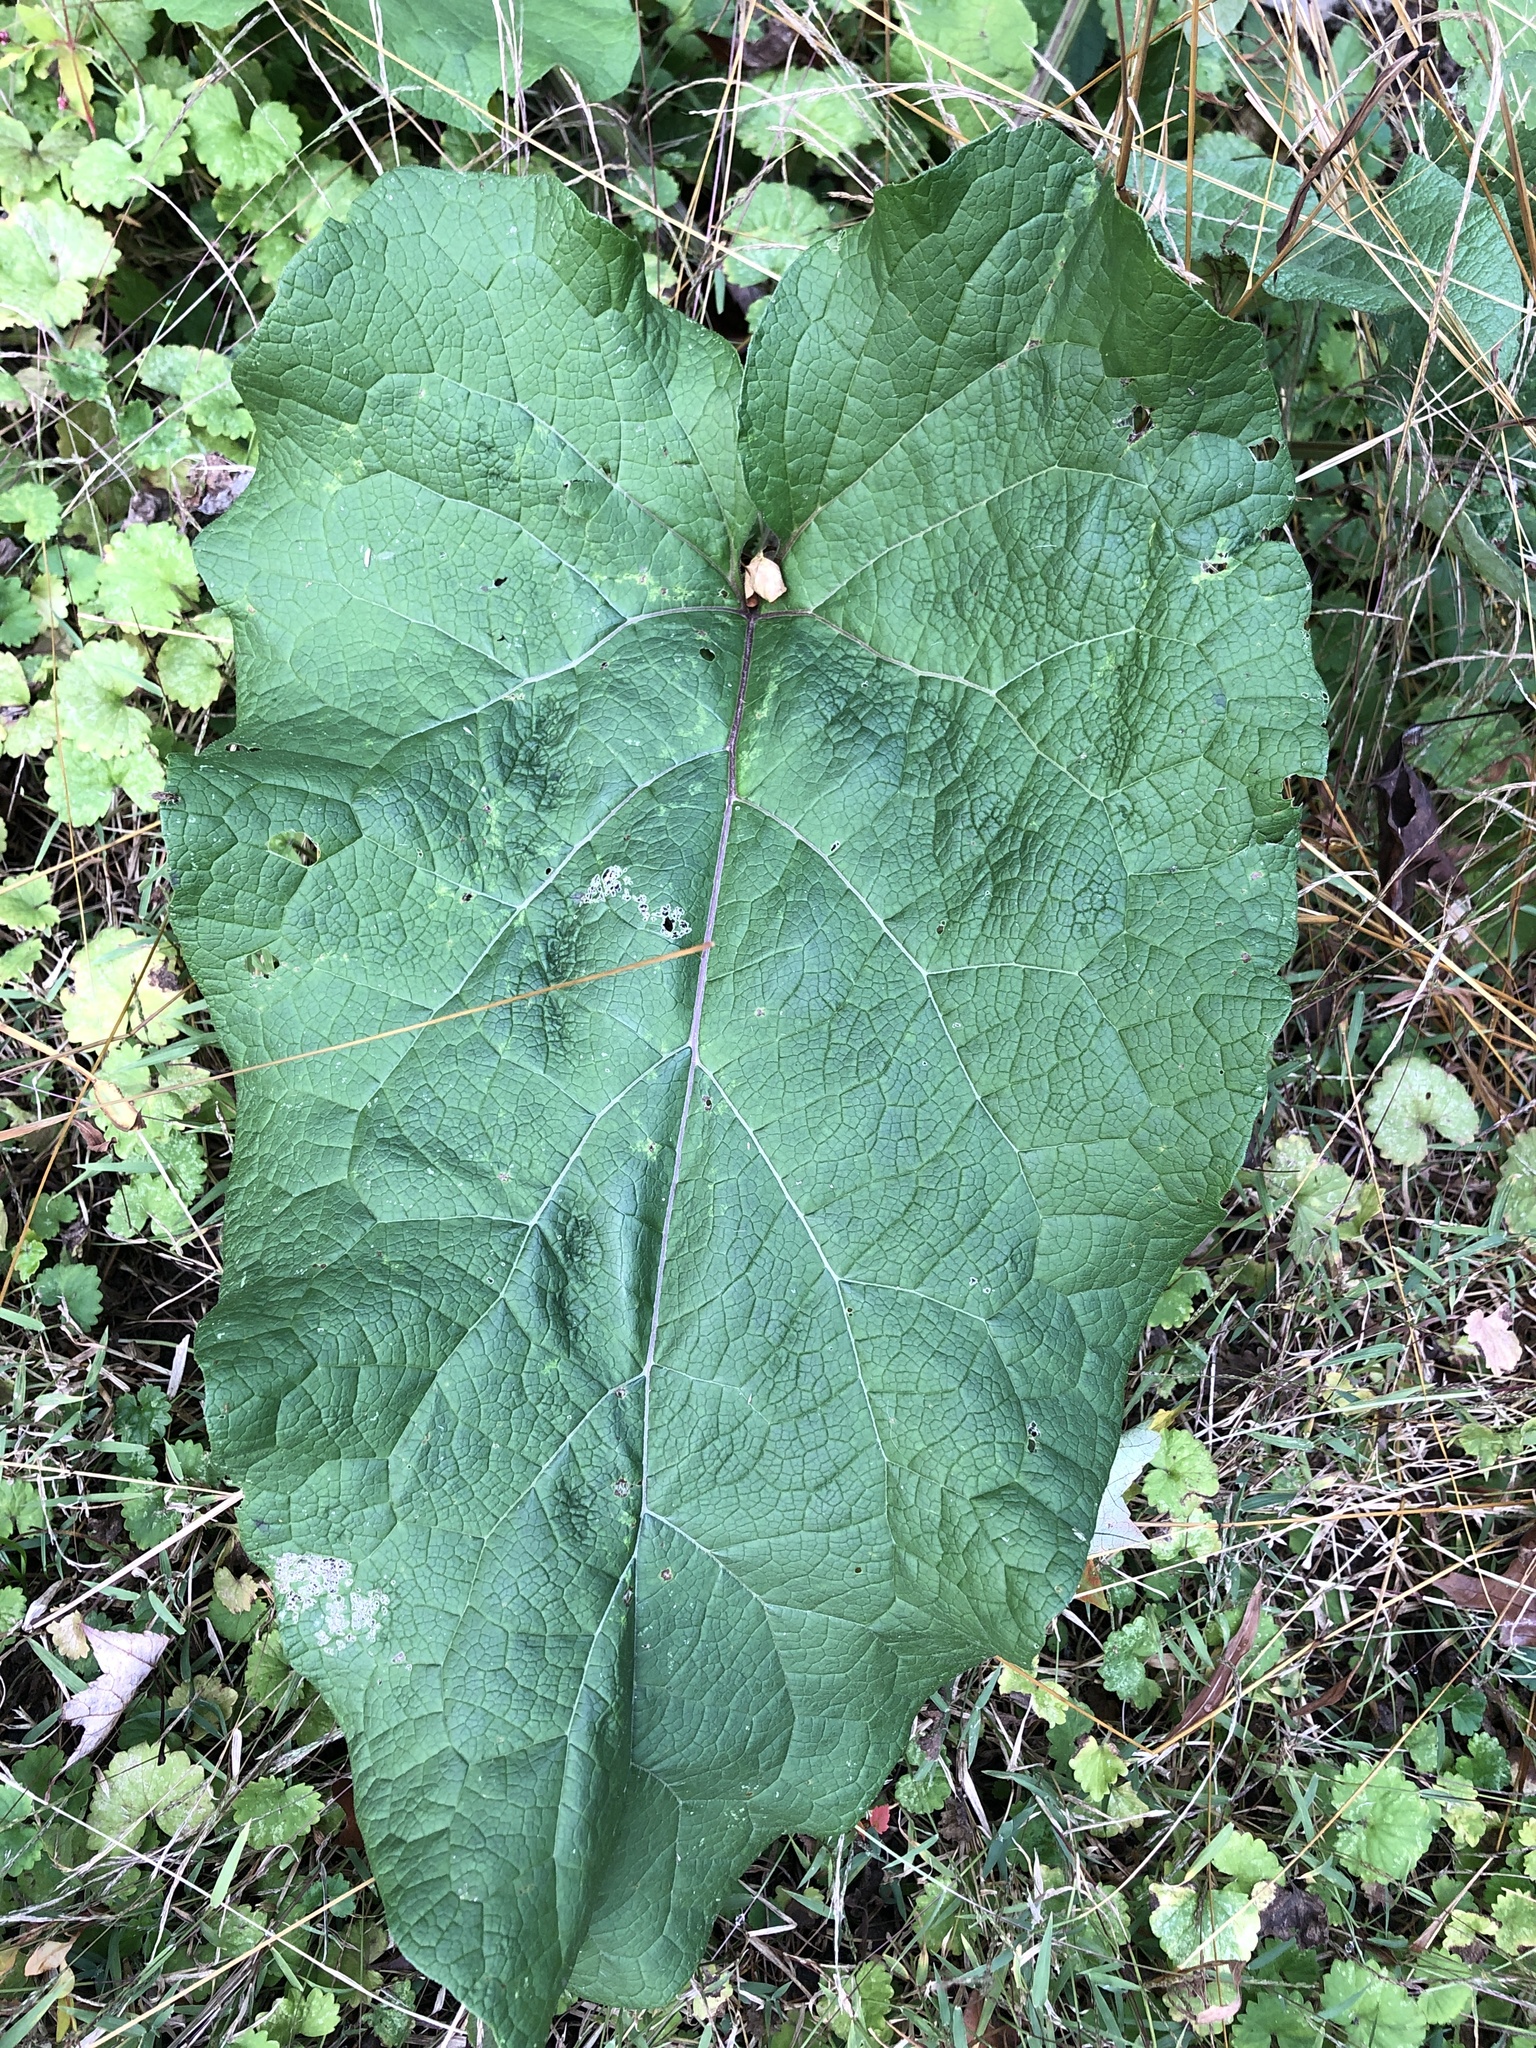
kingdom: Plantae
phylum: Tracheophyta
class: Magnoliopsida
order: Asterales
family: Asteraceae
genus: Arctium
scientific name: Arctium
